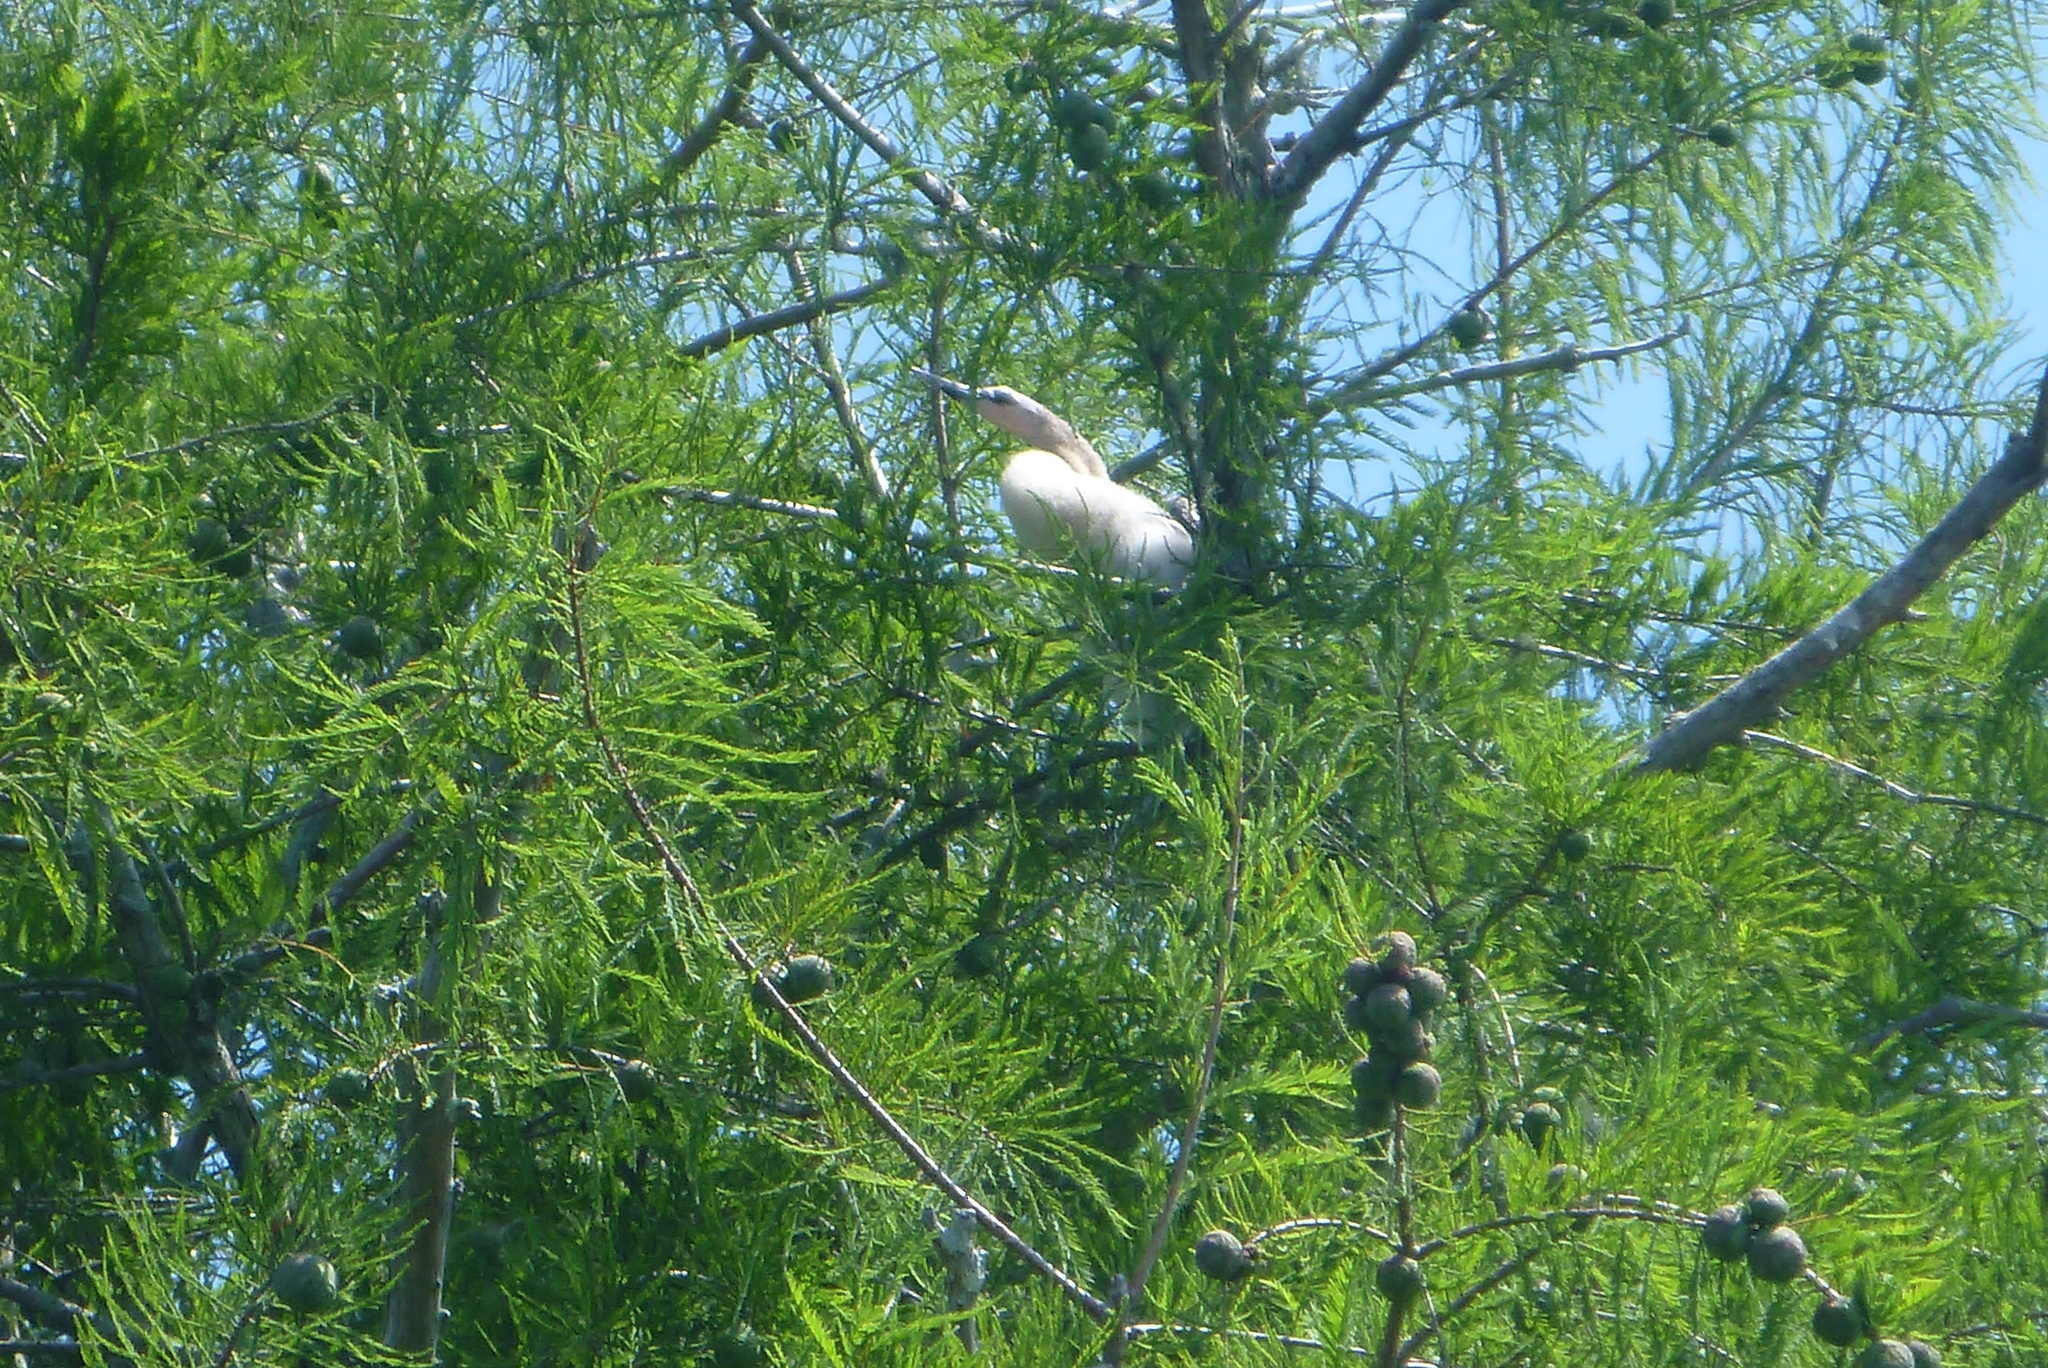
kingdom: Animalia
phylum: Chordata
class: Aves
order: Suliformes
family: Anhingidae
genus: Anhinga
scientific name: Anhinga anhinga
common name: Anhinga
